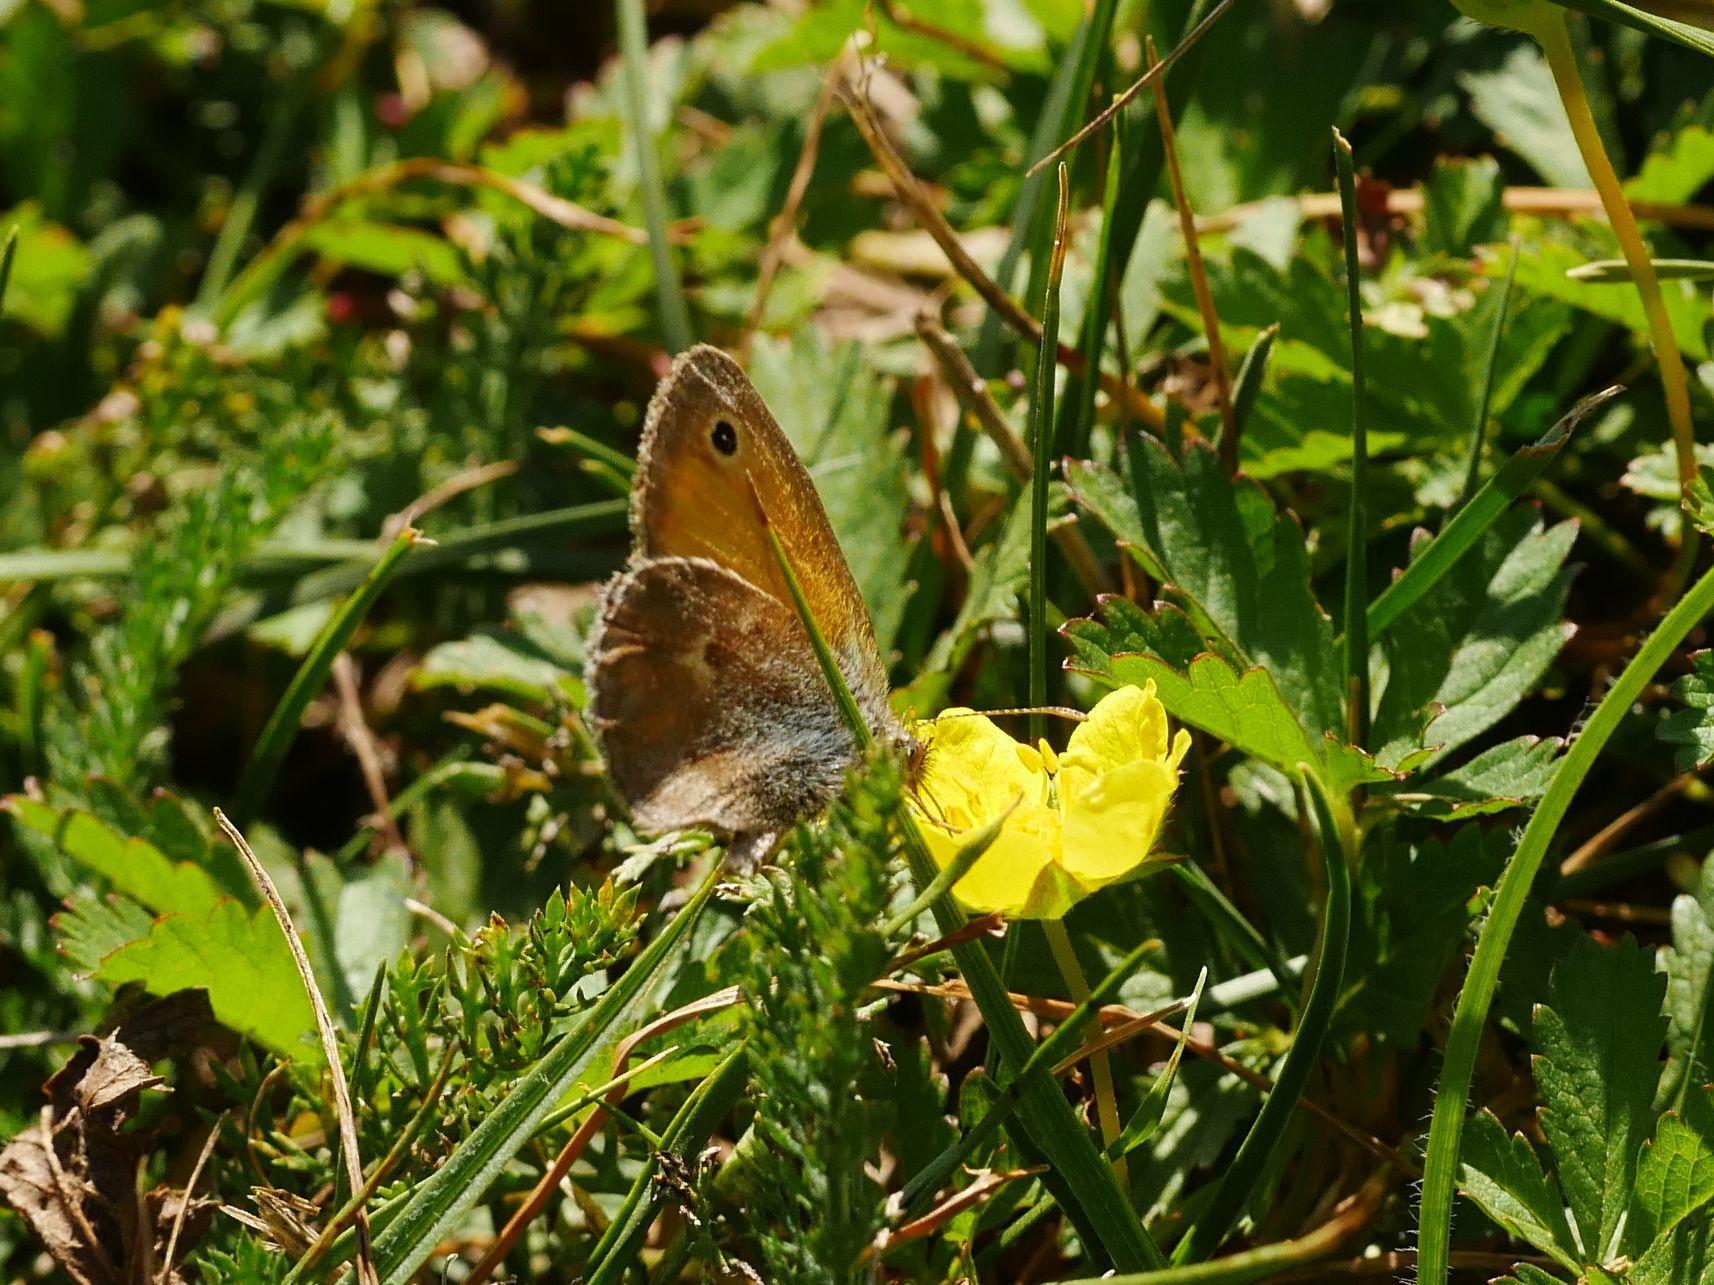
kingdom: Animalia
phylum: Arthropoda
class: Insecta
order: Lepidoptera
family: Nymphalidae
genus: Coenonympha
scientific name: Coenonympha pamphilus
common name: Small heath
